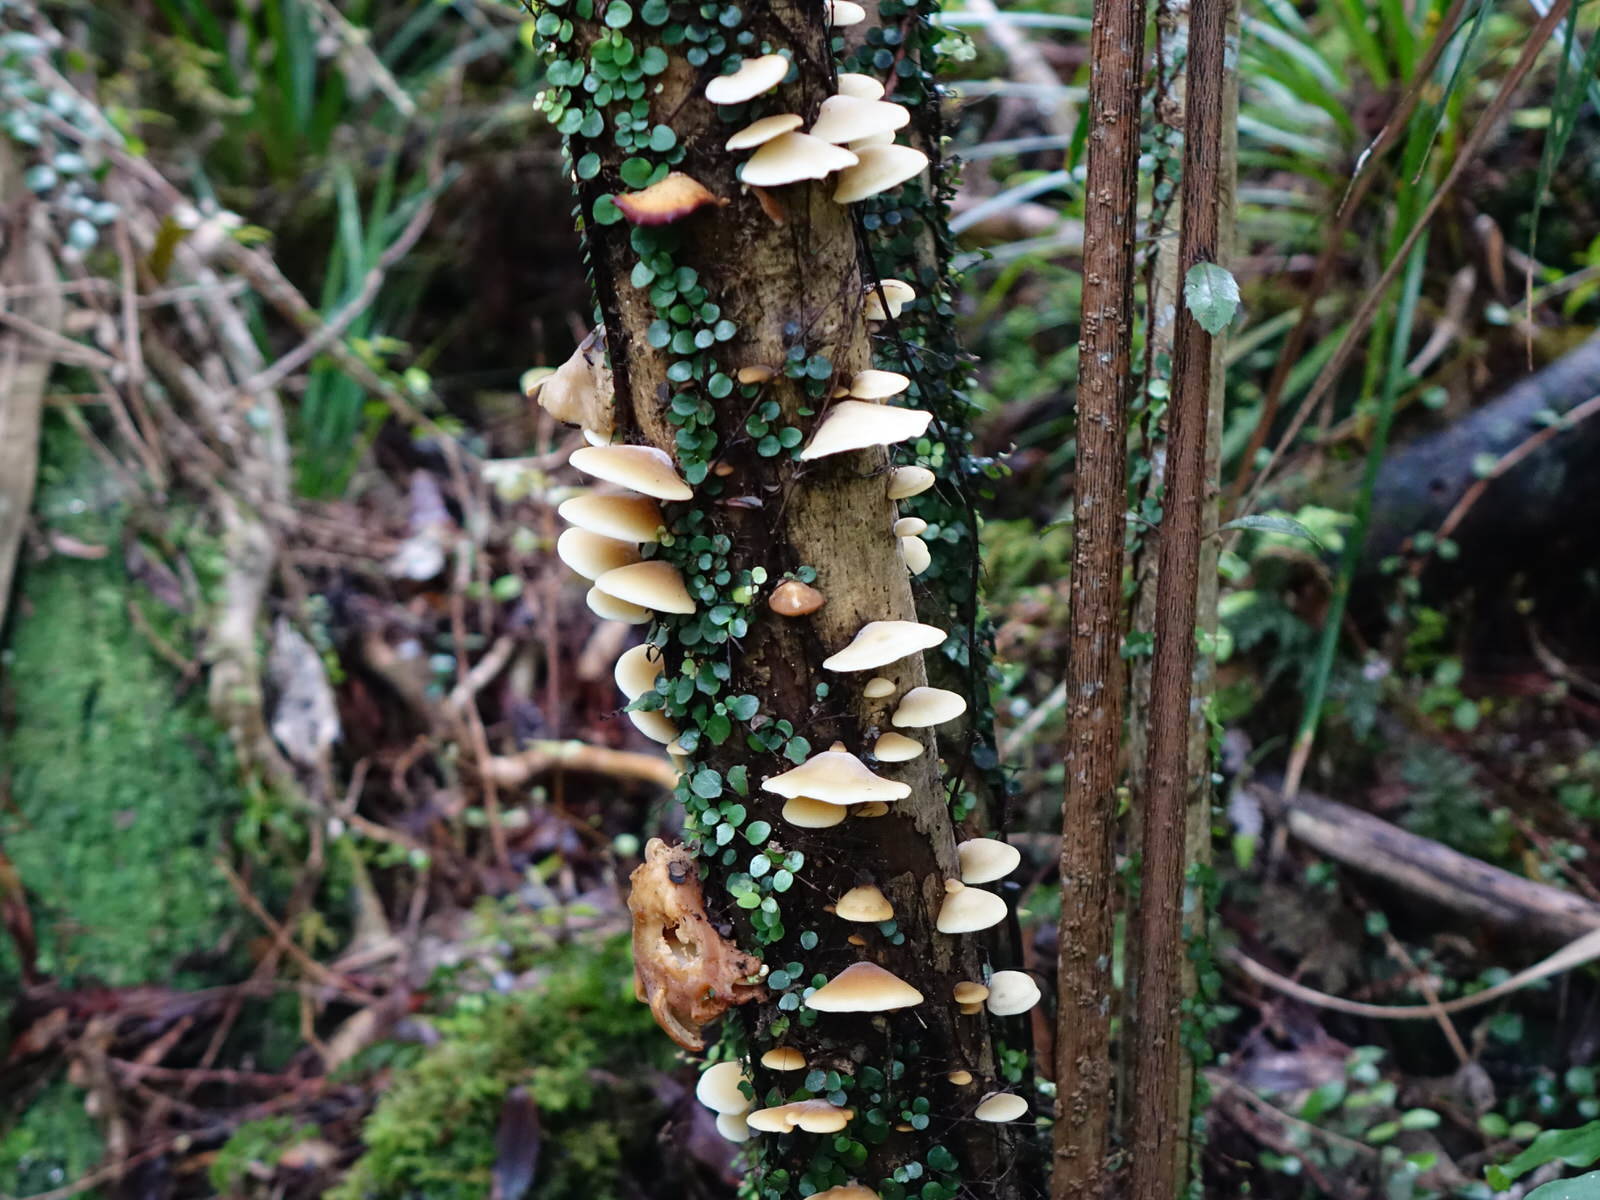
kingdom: Fungi
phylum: Basidiomycota
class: Agaricomycetes
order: Agaricales
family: Tricholomataceae
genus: Conchomyces
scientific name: Conchomyces bursiformis
